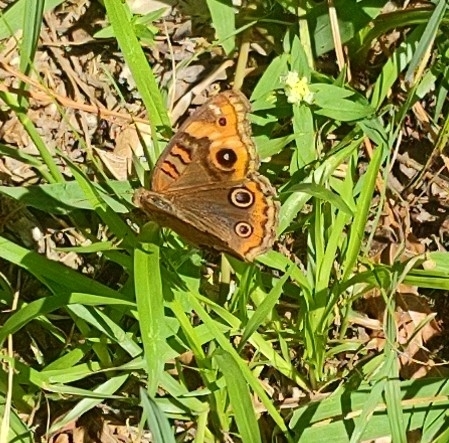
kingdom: Animalia
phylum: Arthropoda
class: Insecta
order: Lepidoptera
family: Nymphalidae
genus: Junonia
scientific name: Junonia evarete
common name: Black mangrove buckeye
